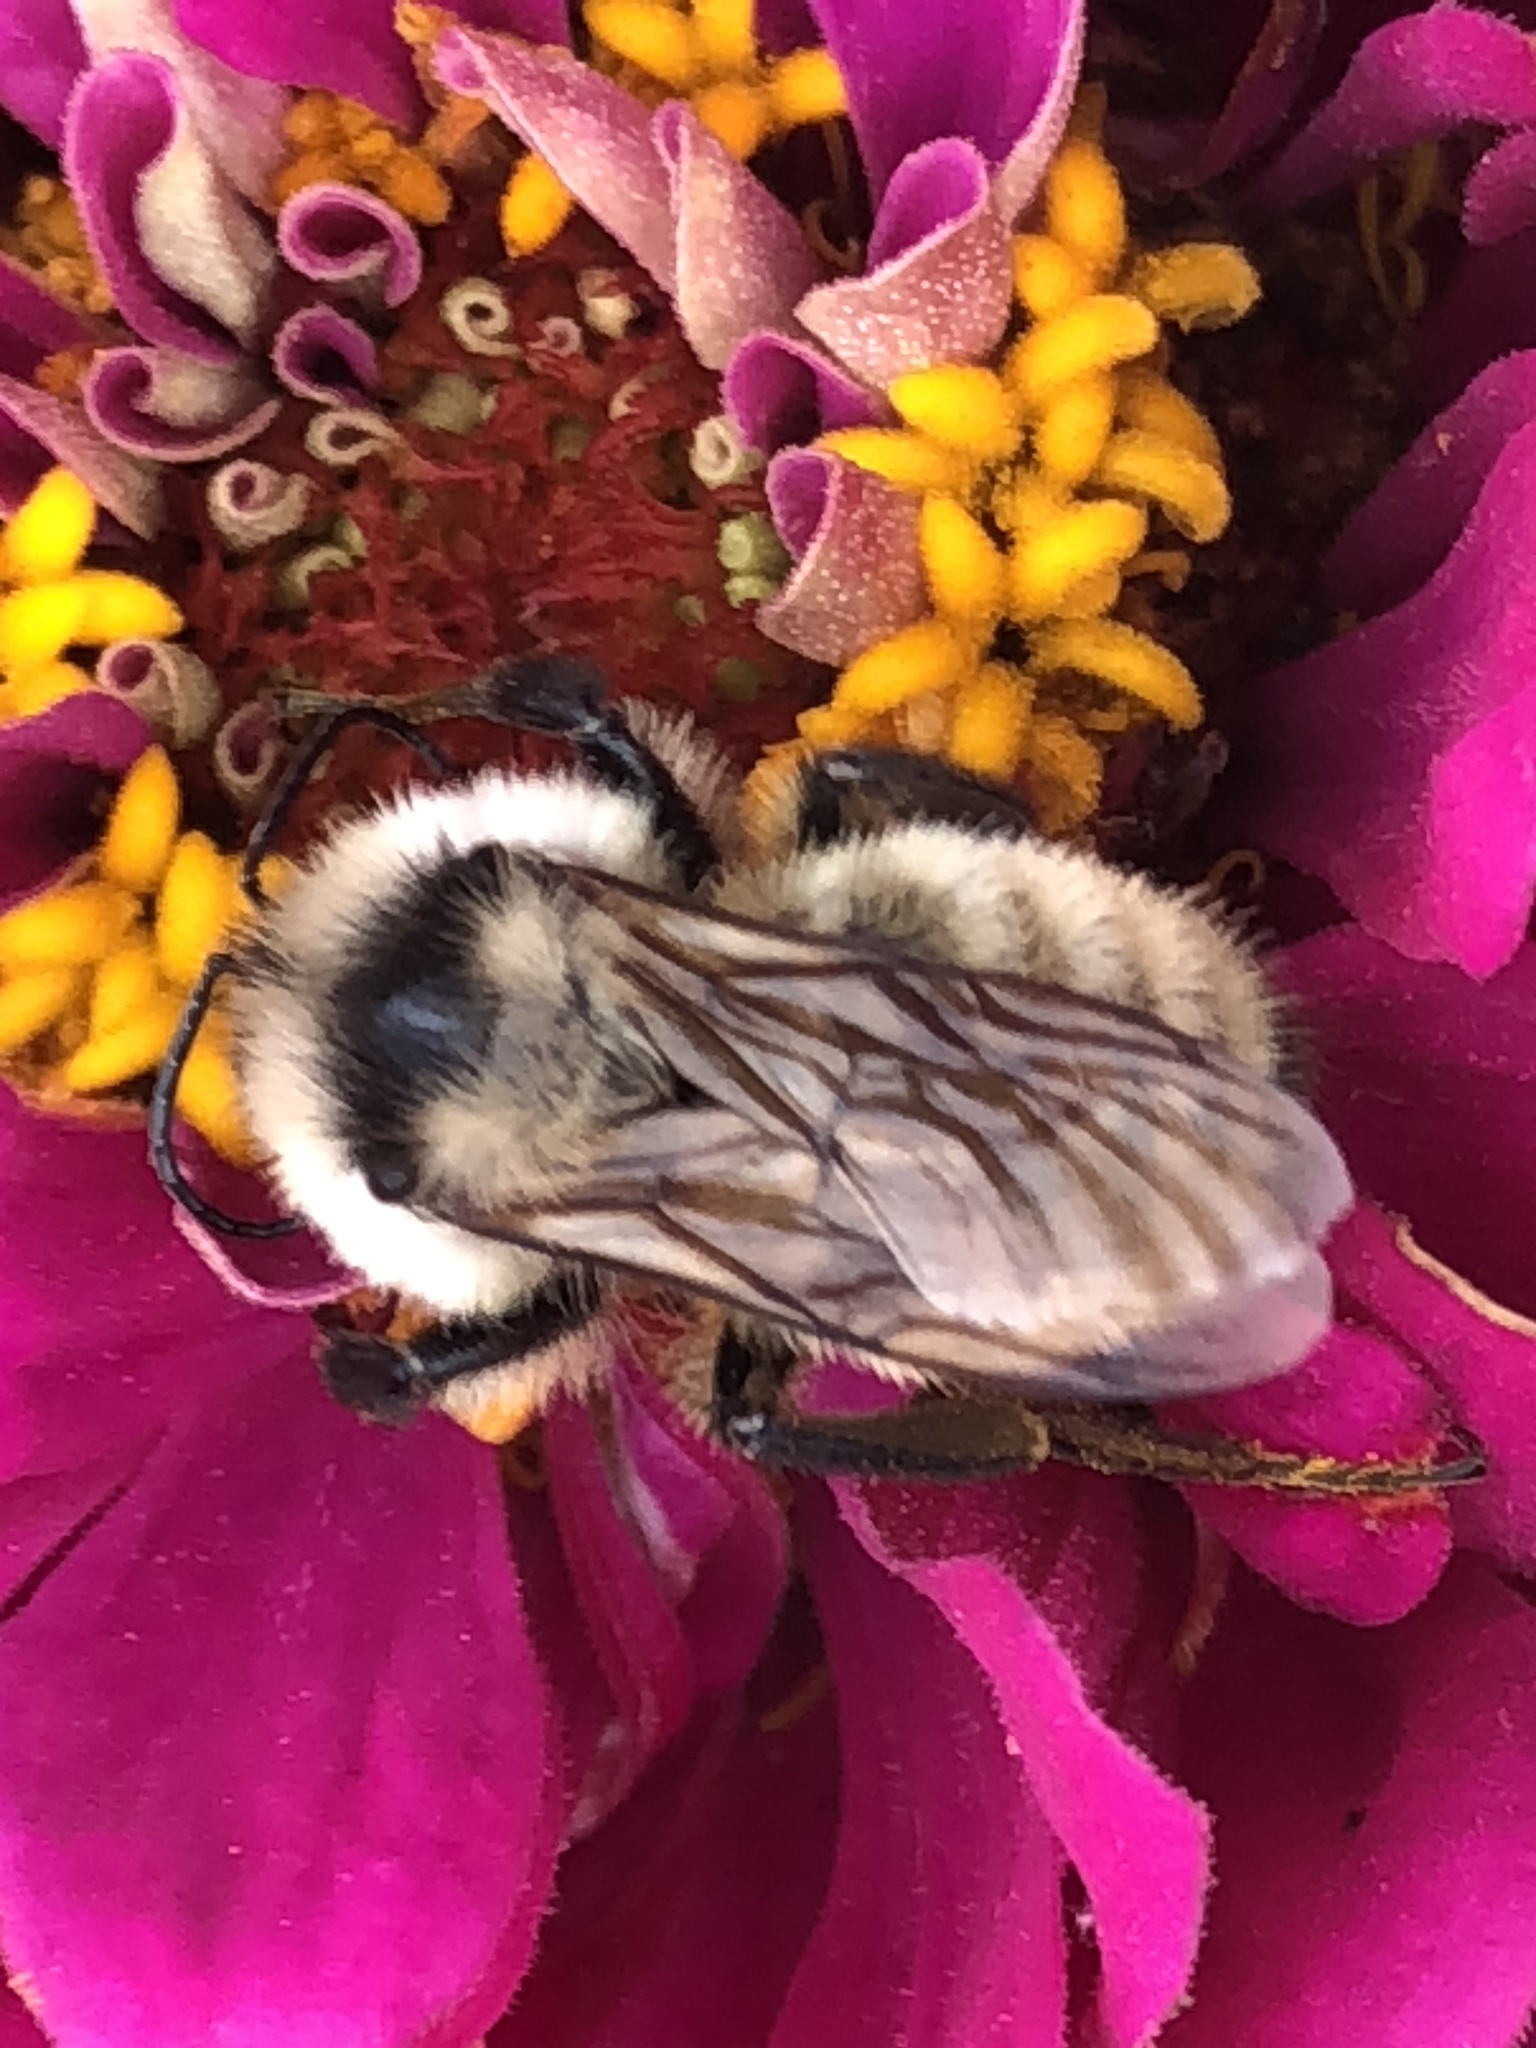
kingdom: Animalia
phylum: Arthropoda
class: Insecta
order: Hymenoptera
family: Apidae
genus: Bombus
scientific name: Bombus fervidus
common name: Yellow bumble bee
